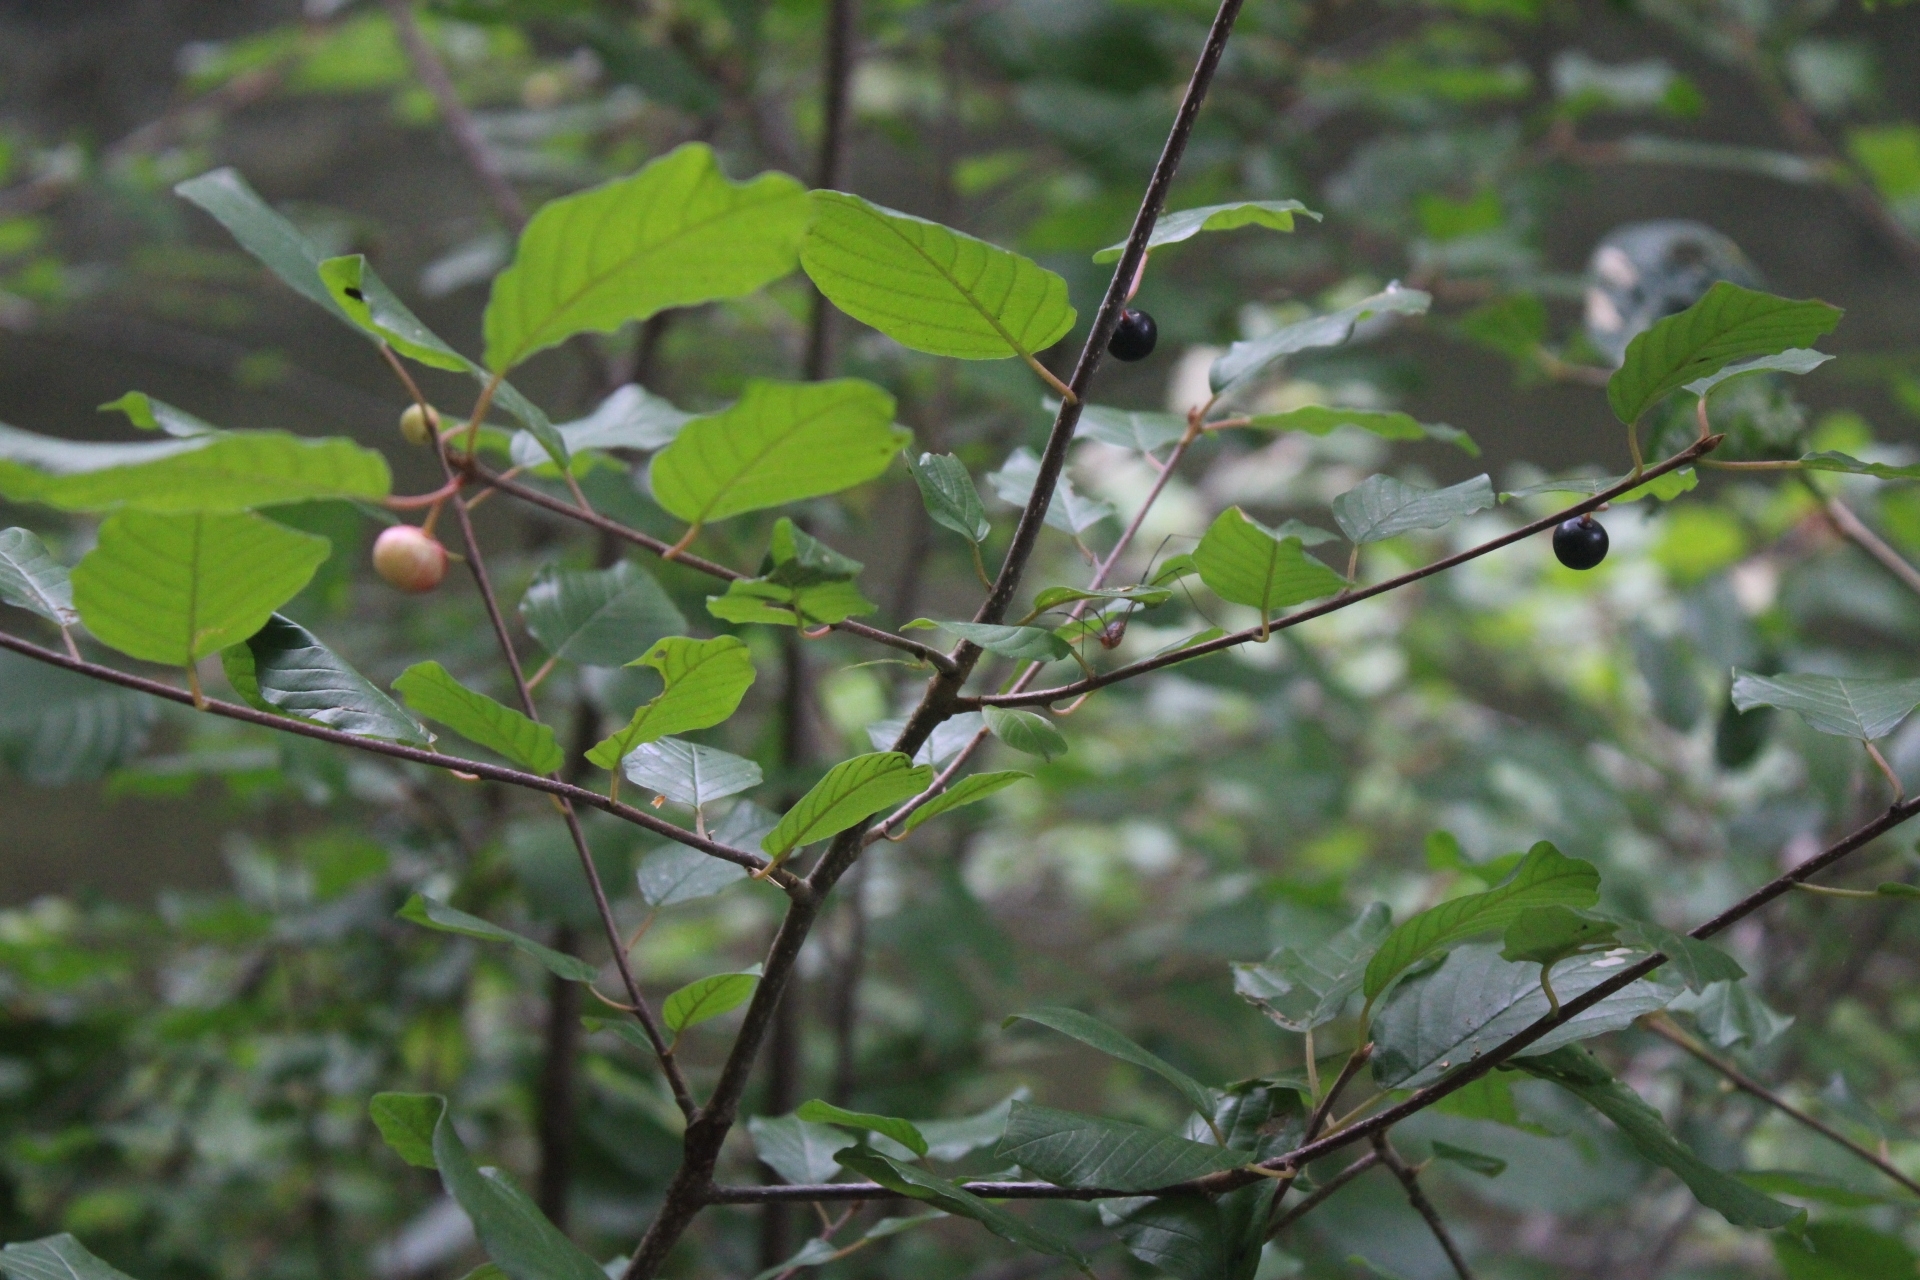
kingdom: Plantae
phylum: Tracheophyta
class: Magnoliopsida
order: Rosales
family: Rhamnaceae
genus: Frangula
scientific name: Frangula alnus
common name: Alder buckthorn
